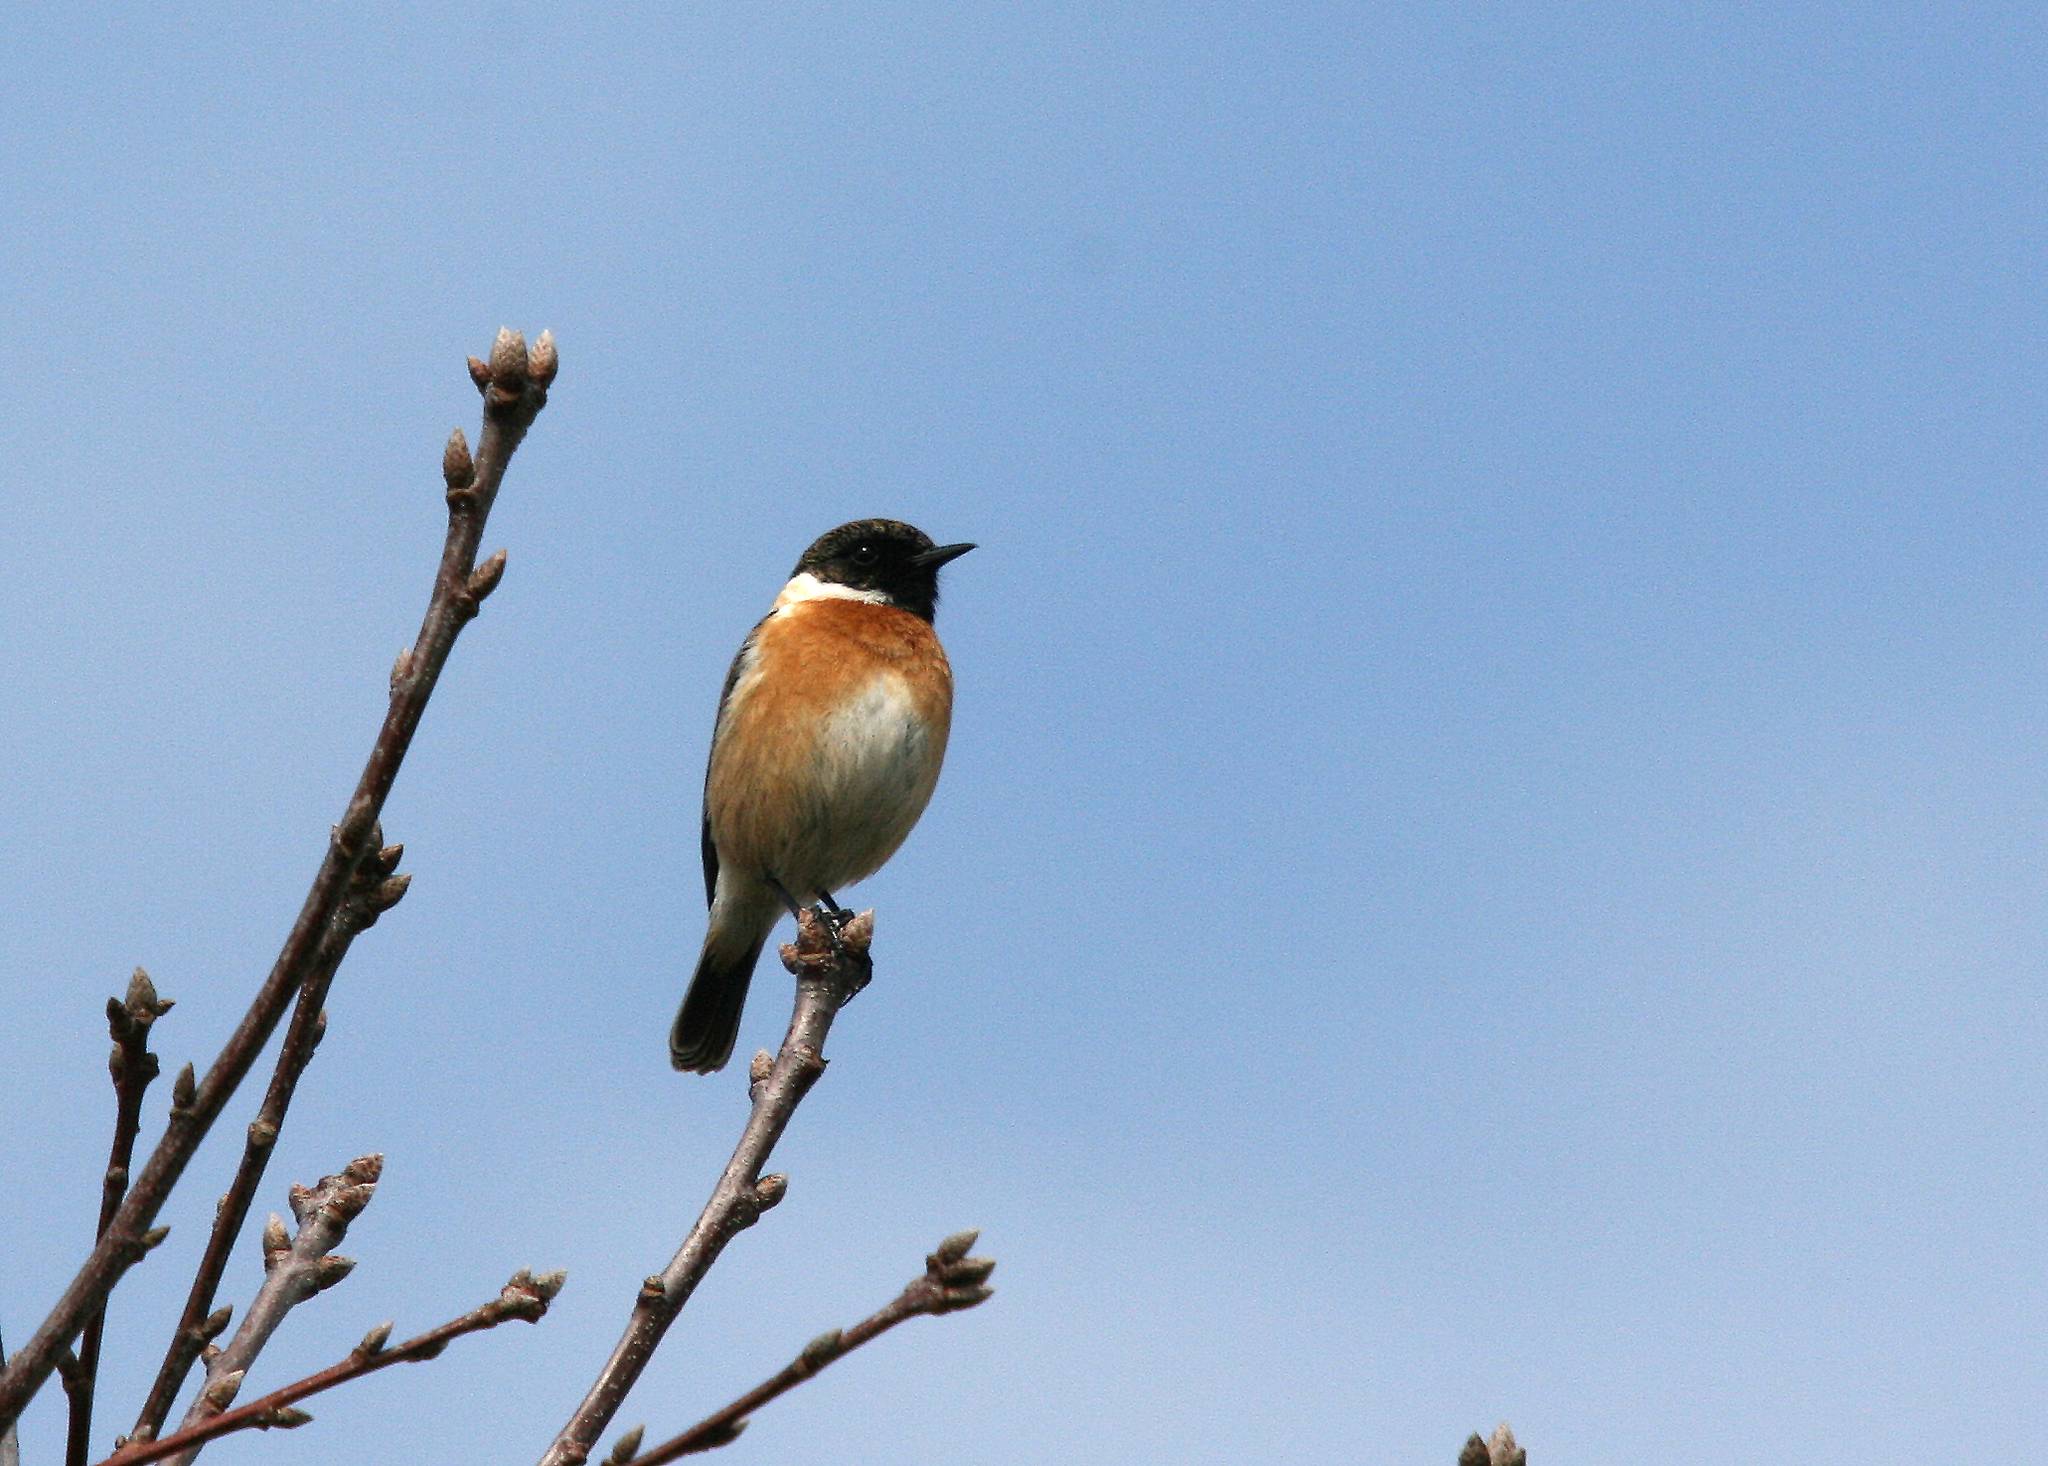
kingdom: Animalia
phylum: Chordata
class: Aves
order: Passeriformes
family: Muscicapidae
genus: Saxicola
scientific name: Saxicola rubicola
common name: European stonechat
